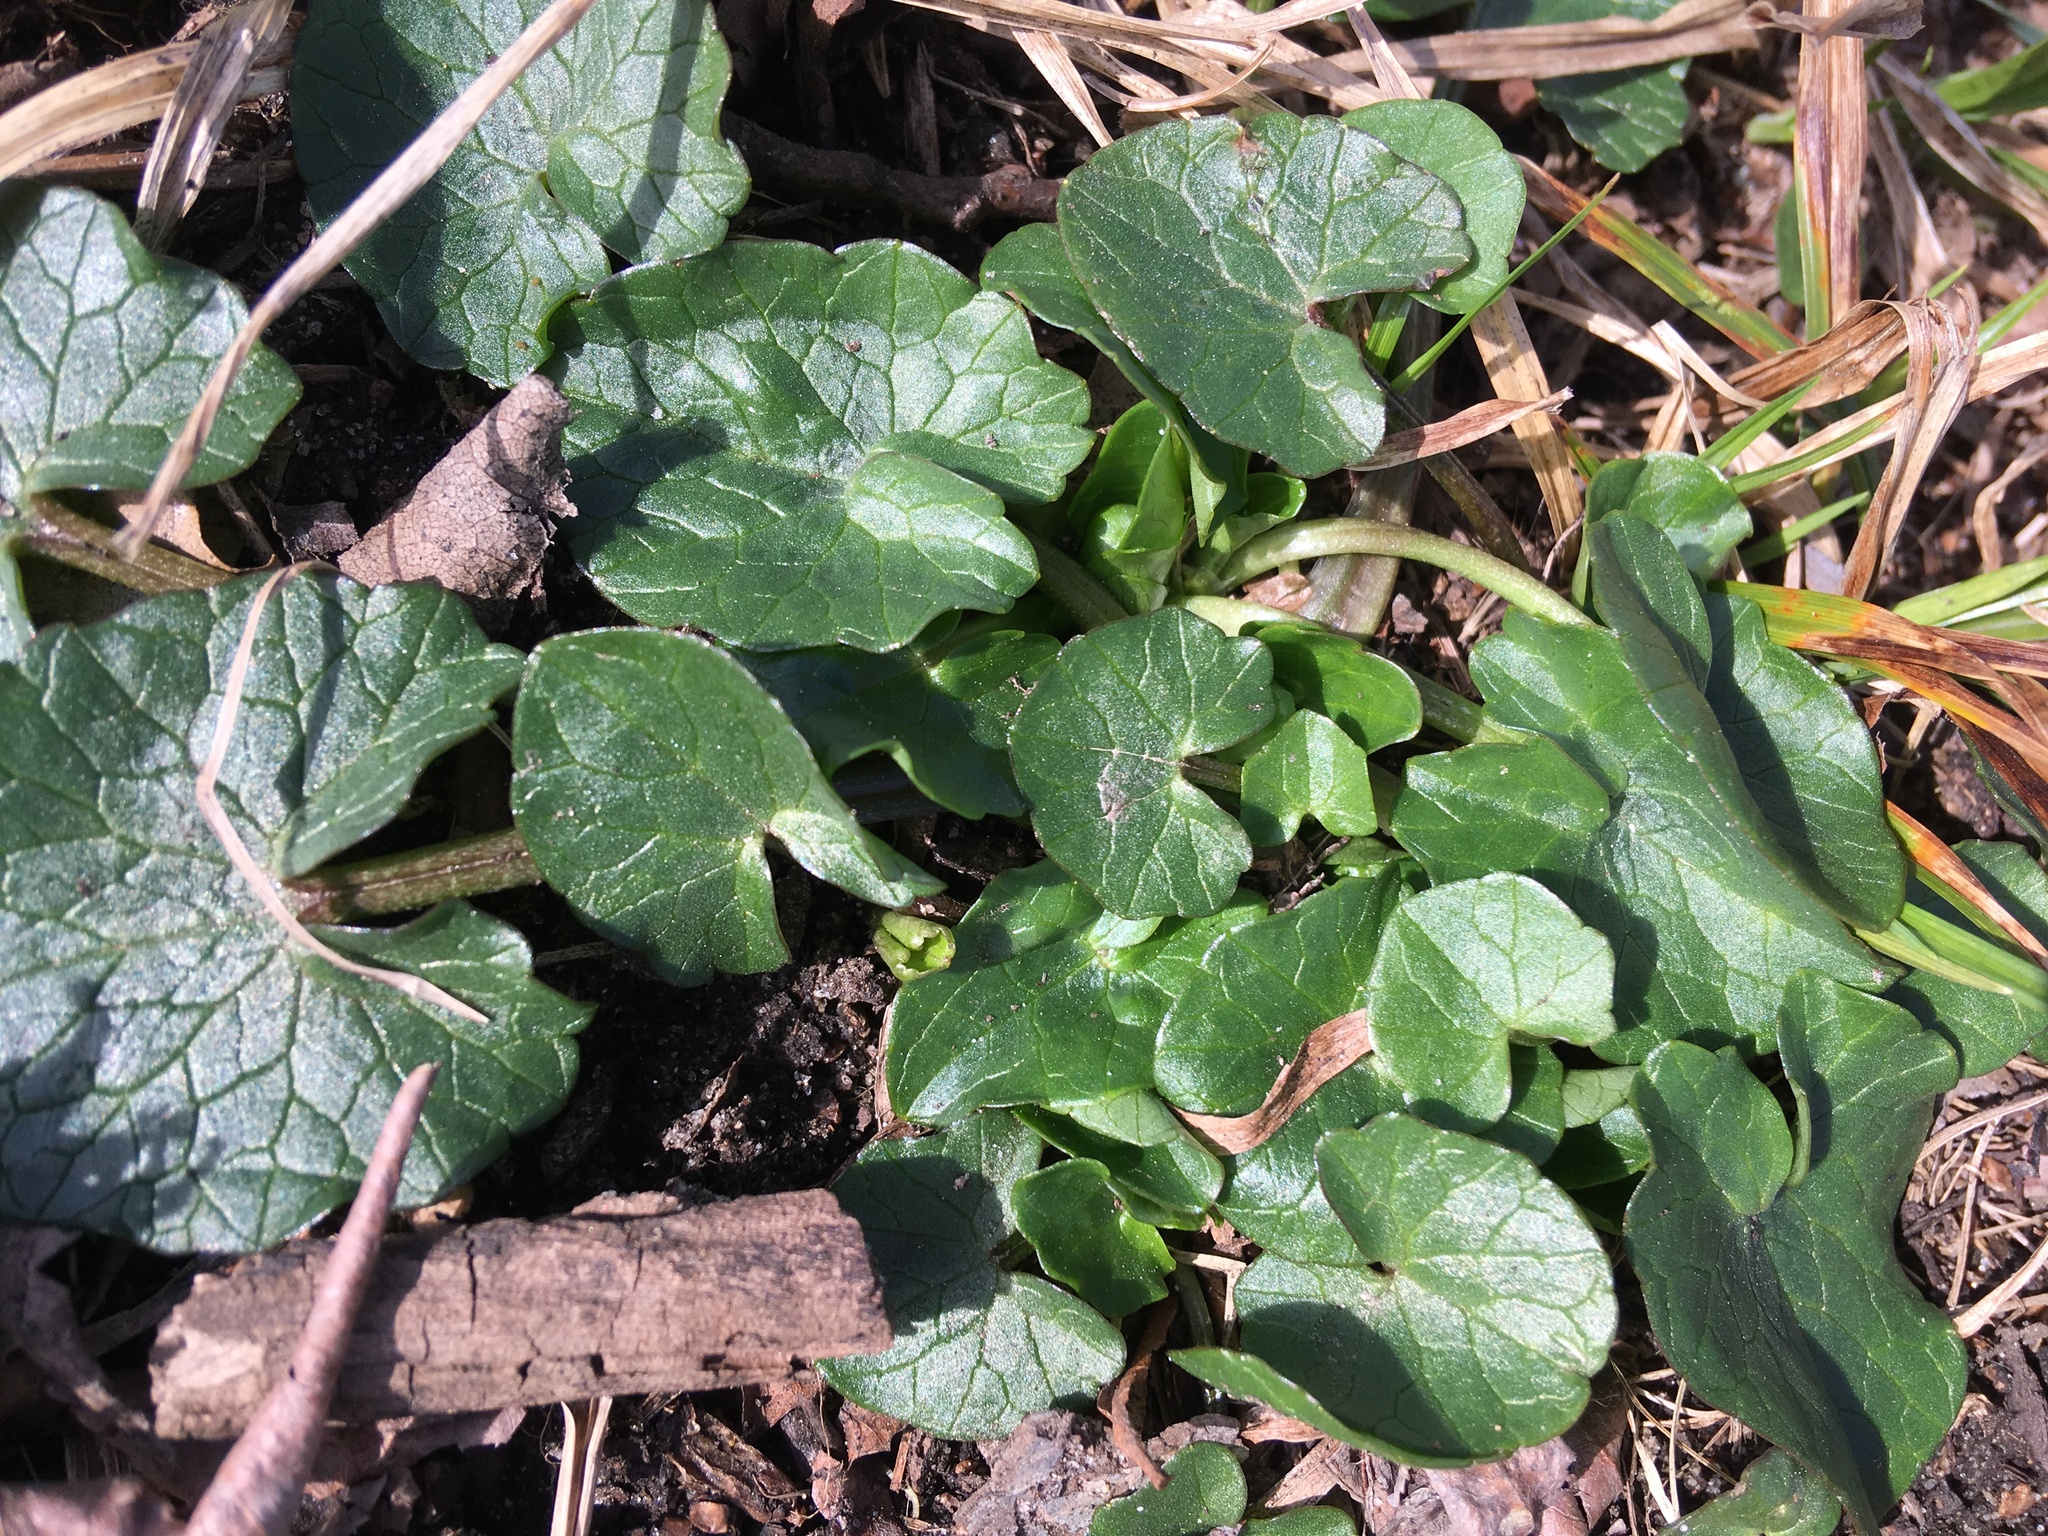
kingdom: Plantae
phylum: Tracheophyta
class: Magnoliopsida
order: Ranunculales
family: Ranunculaceae
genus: Ficaria
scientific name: Ficaria verna
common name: Lesser celandine
